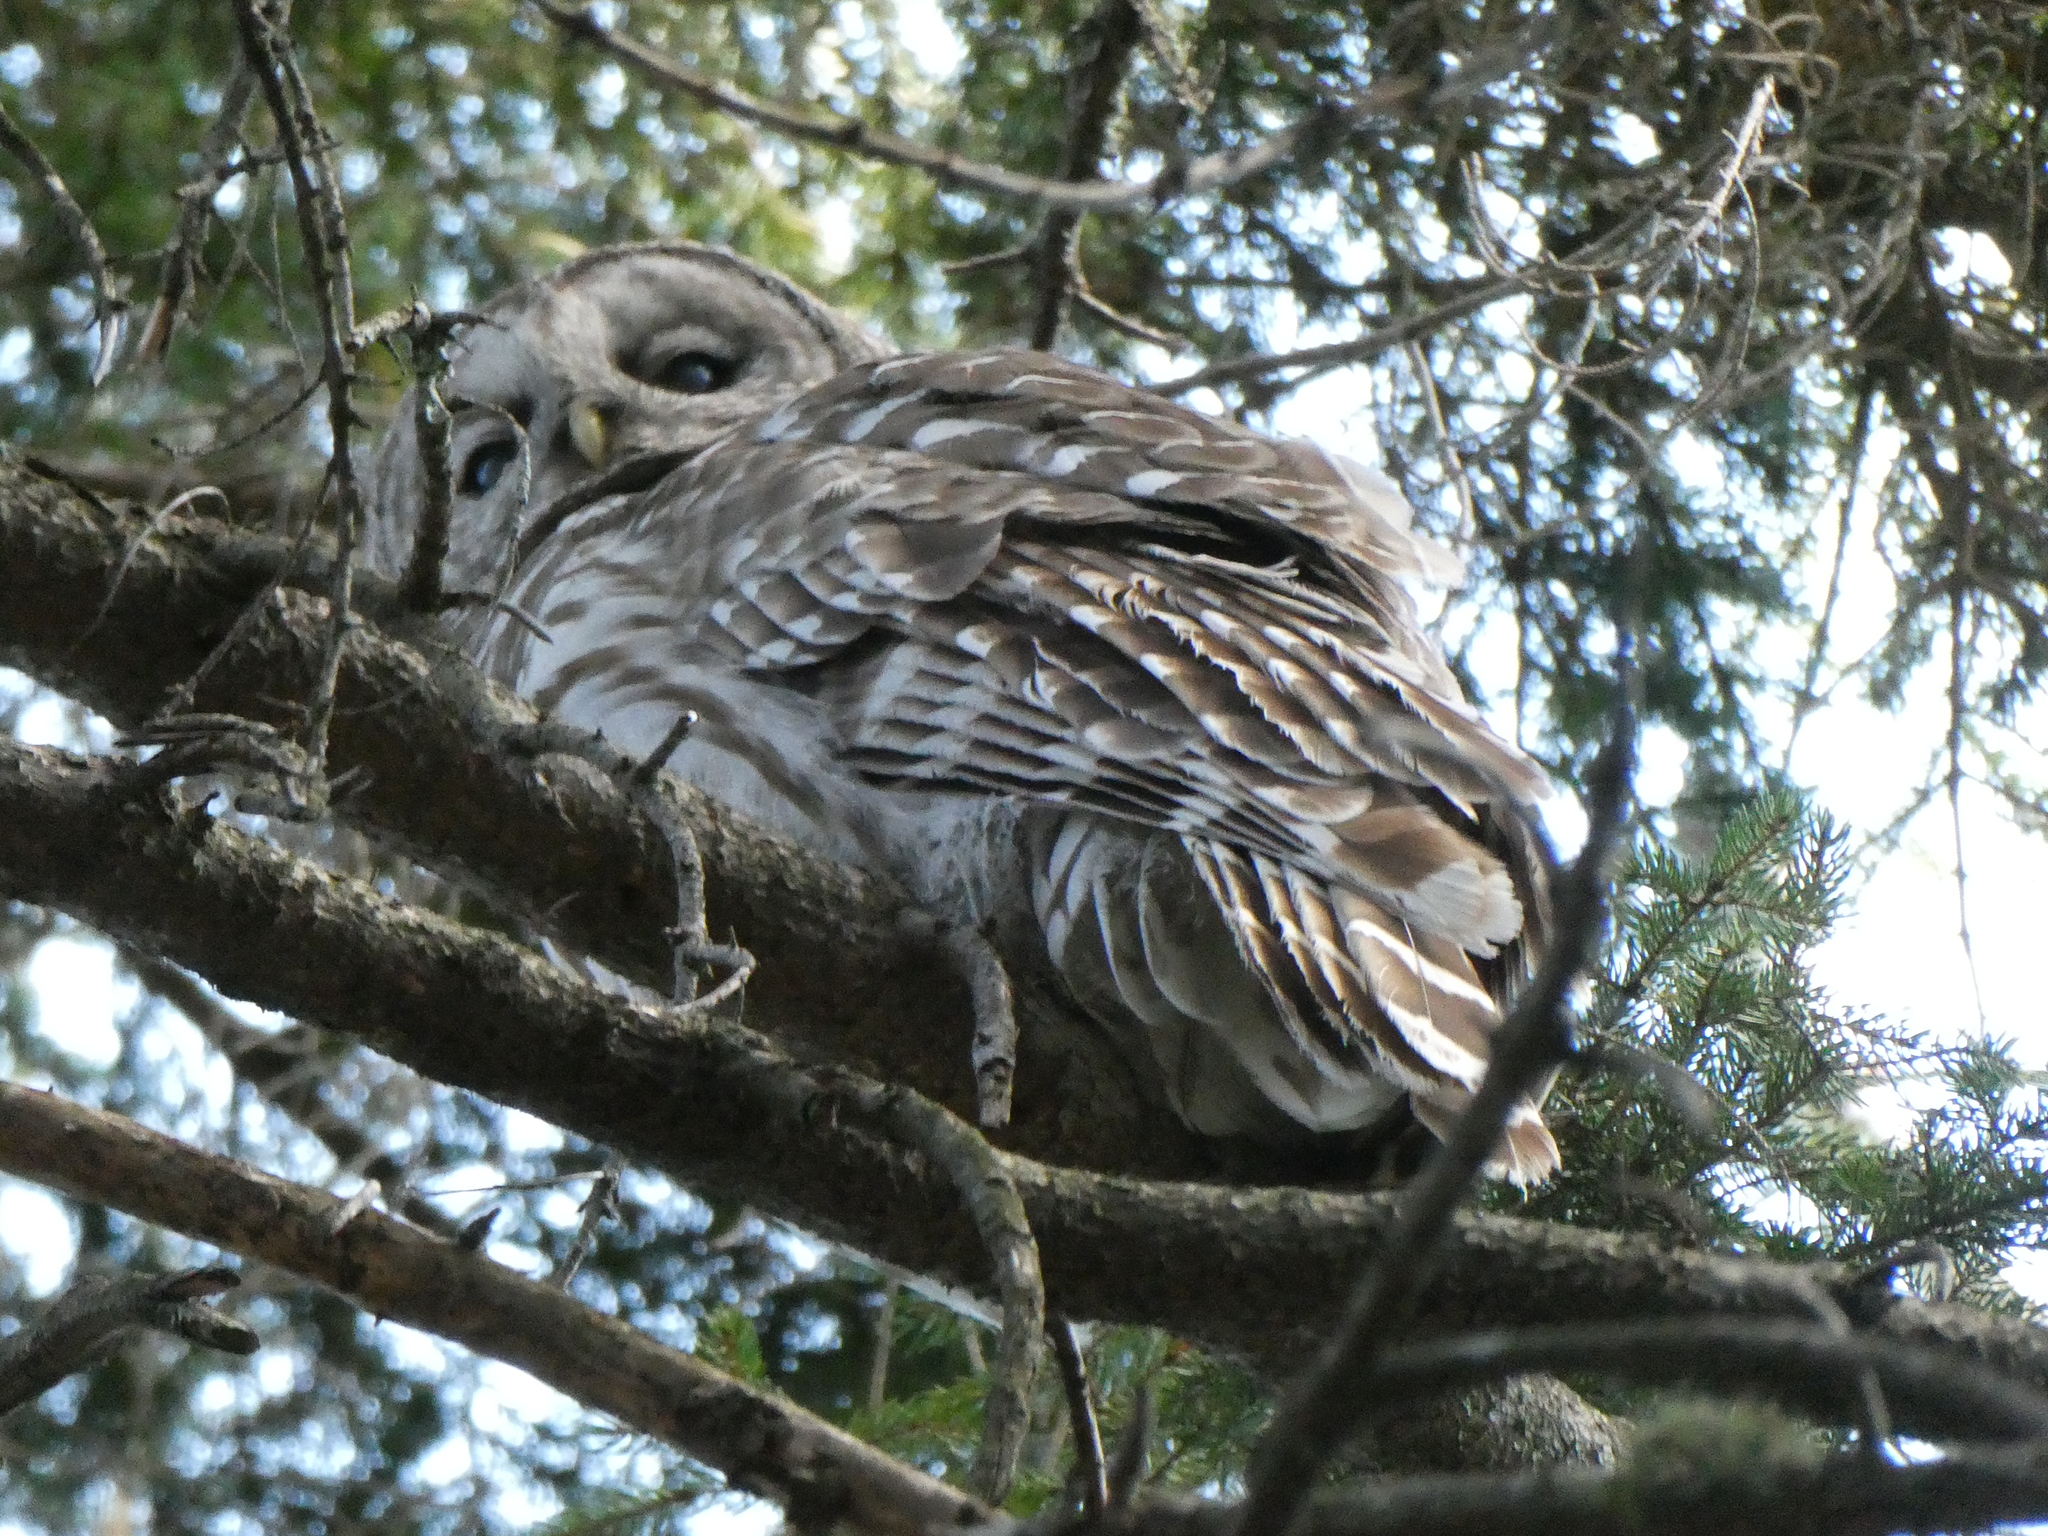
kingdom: Animalia
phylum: Chordata
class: Aves
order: Strigiformes
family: Strigidae
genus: Strix
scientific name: Strix varia
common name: Barred owl
